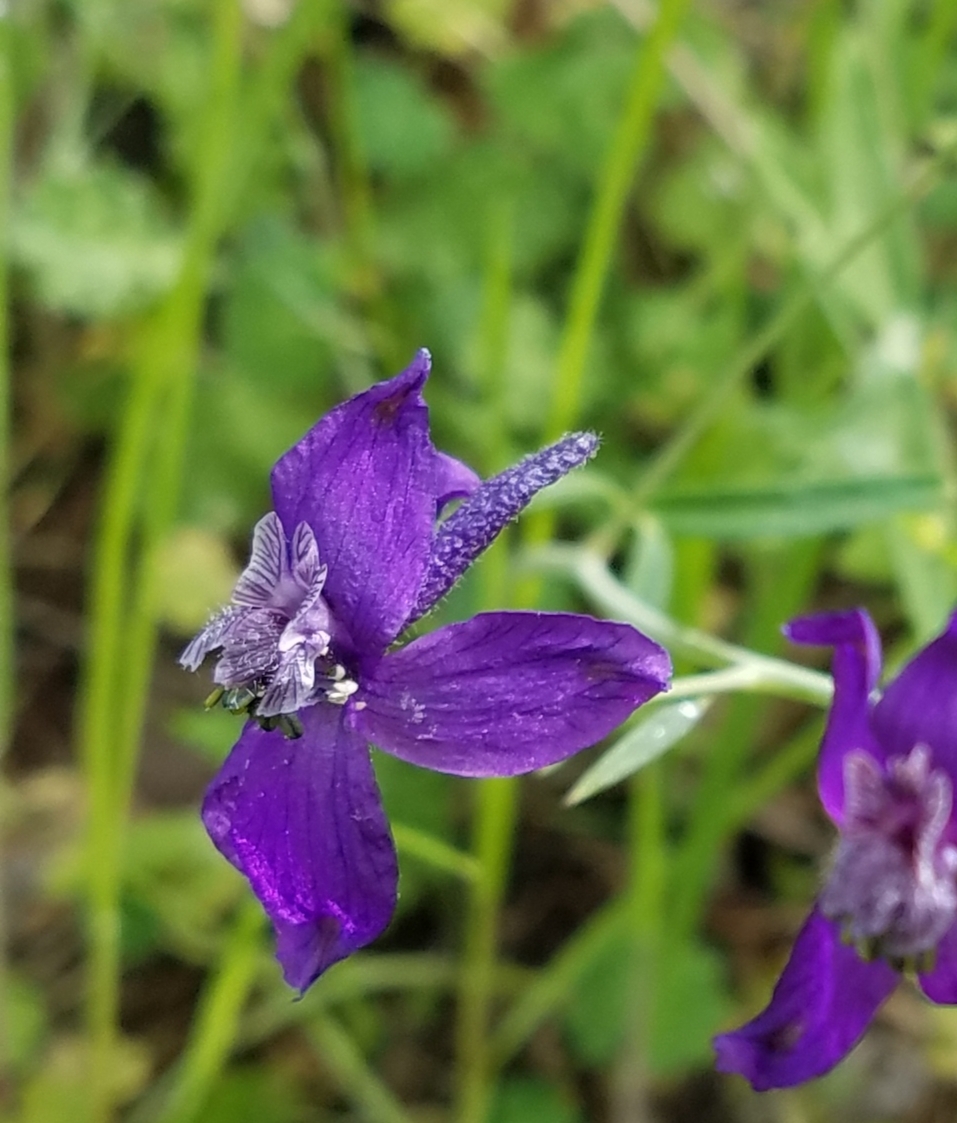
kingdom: Plantae
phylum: Tracheophyta
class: Magnoliopsida
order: Ranunculales
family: Ranunculaceae
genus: Delphinium
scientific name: Delphinium patens
